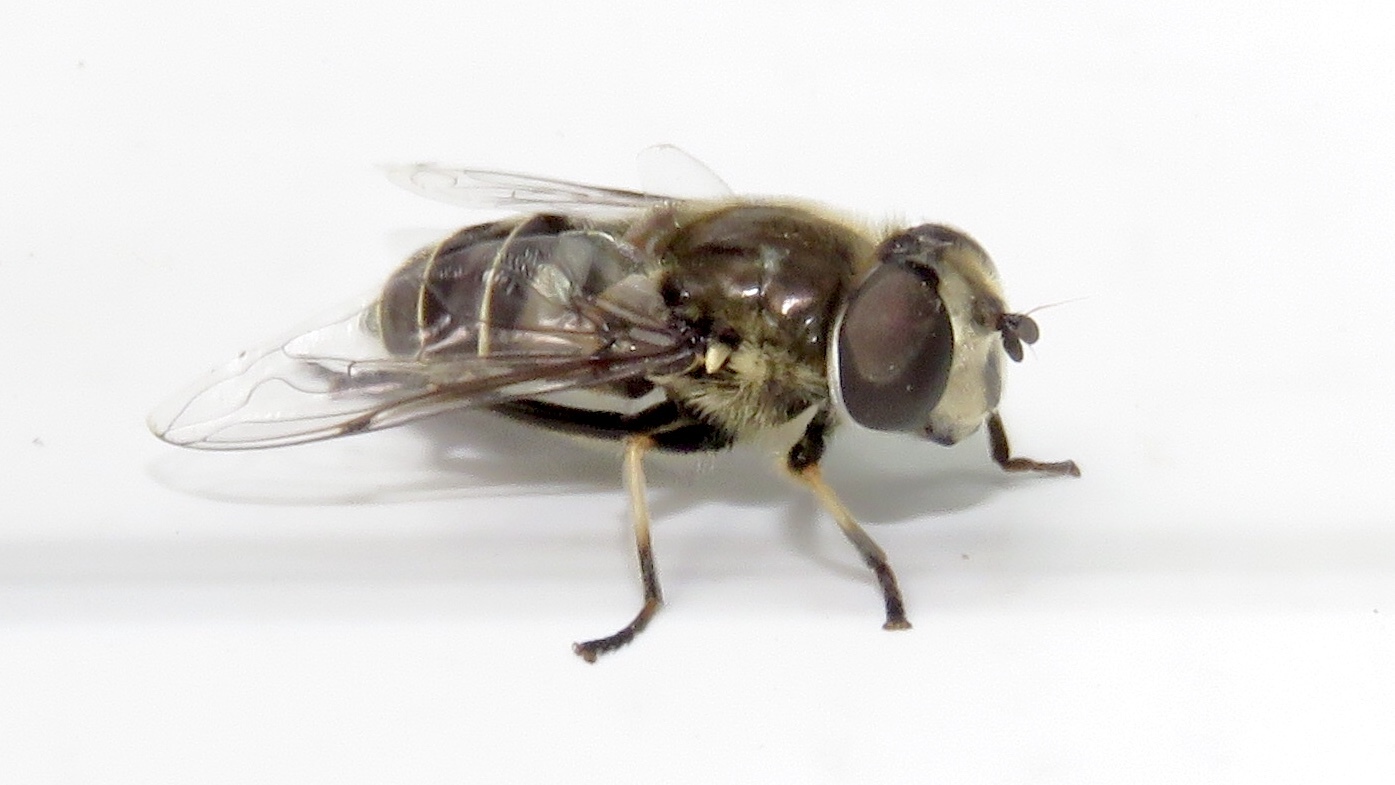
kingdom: Animalia
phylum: Arthropoda
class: Insecta
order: Diptera
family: Syrphidae
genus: Eristalis
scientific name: Eristalis dimidiata
